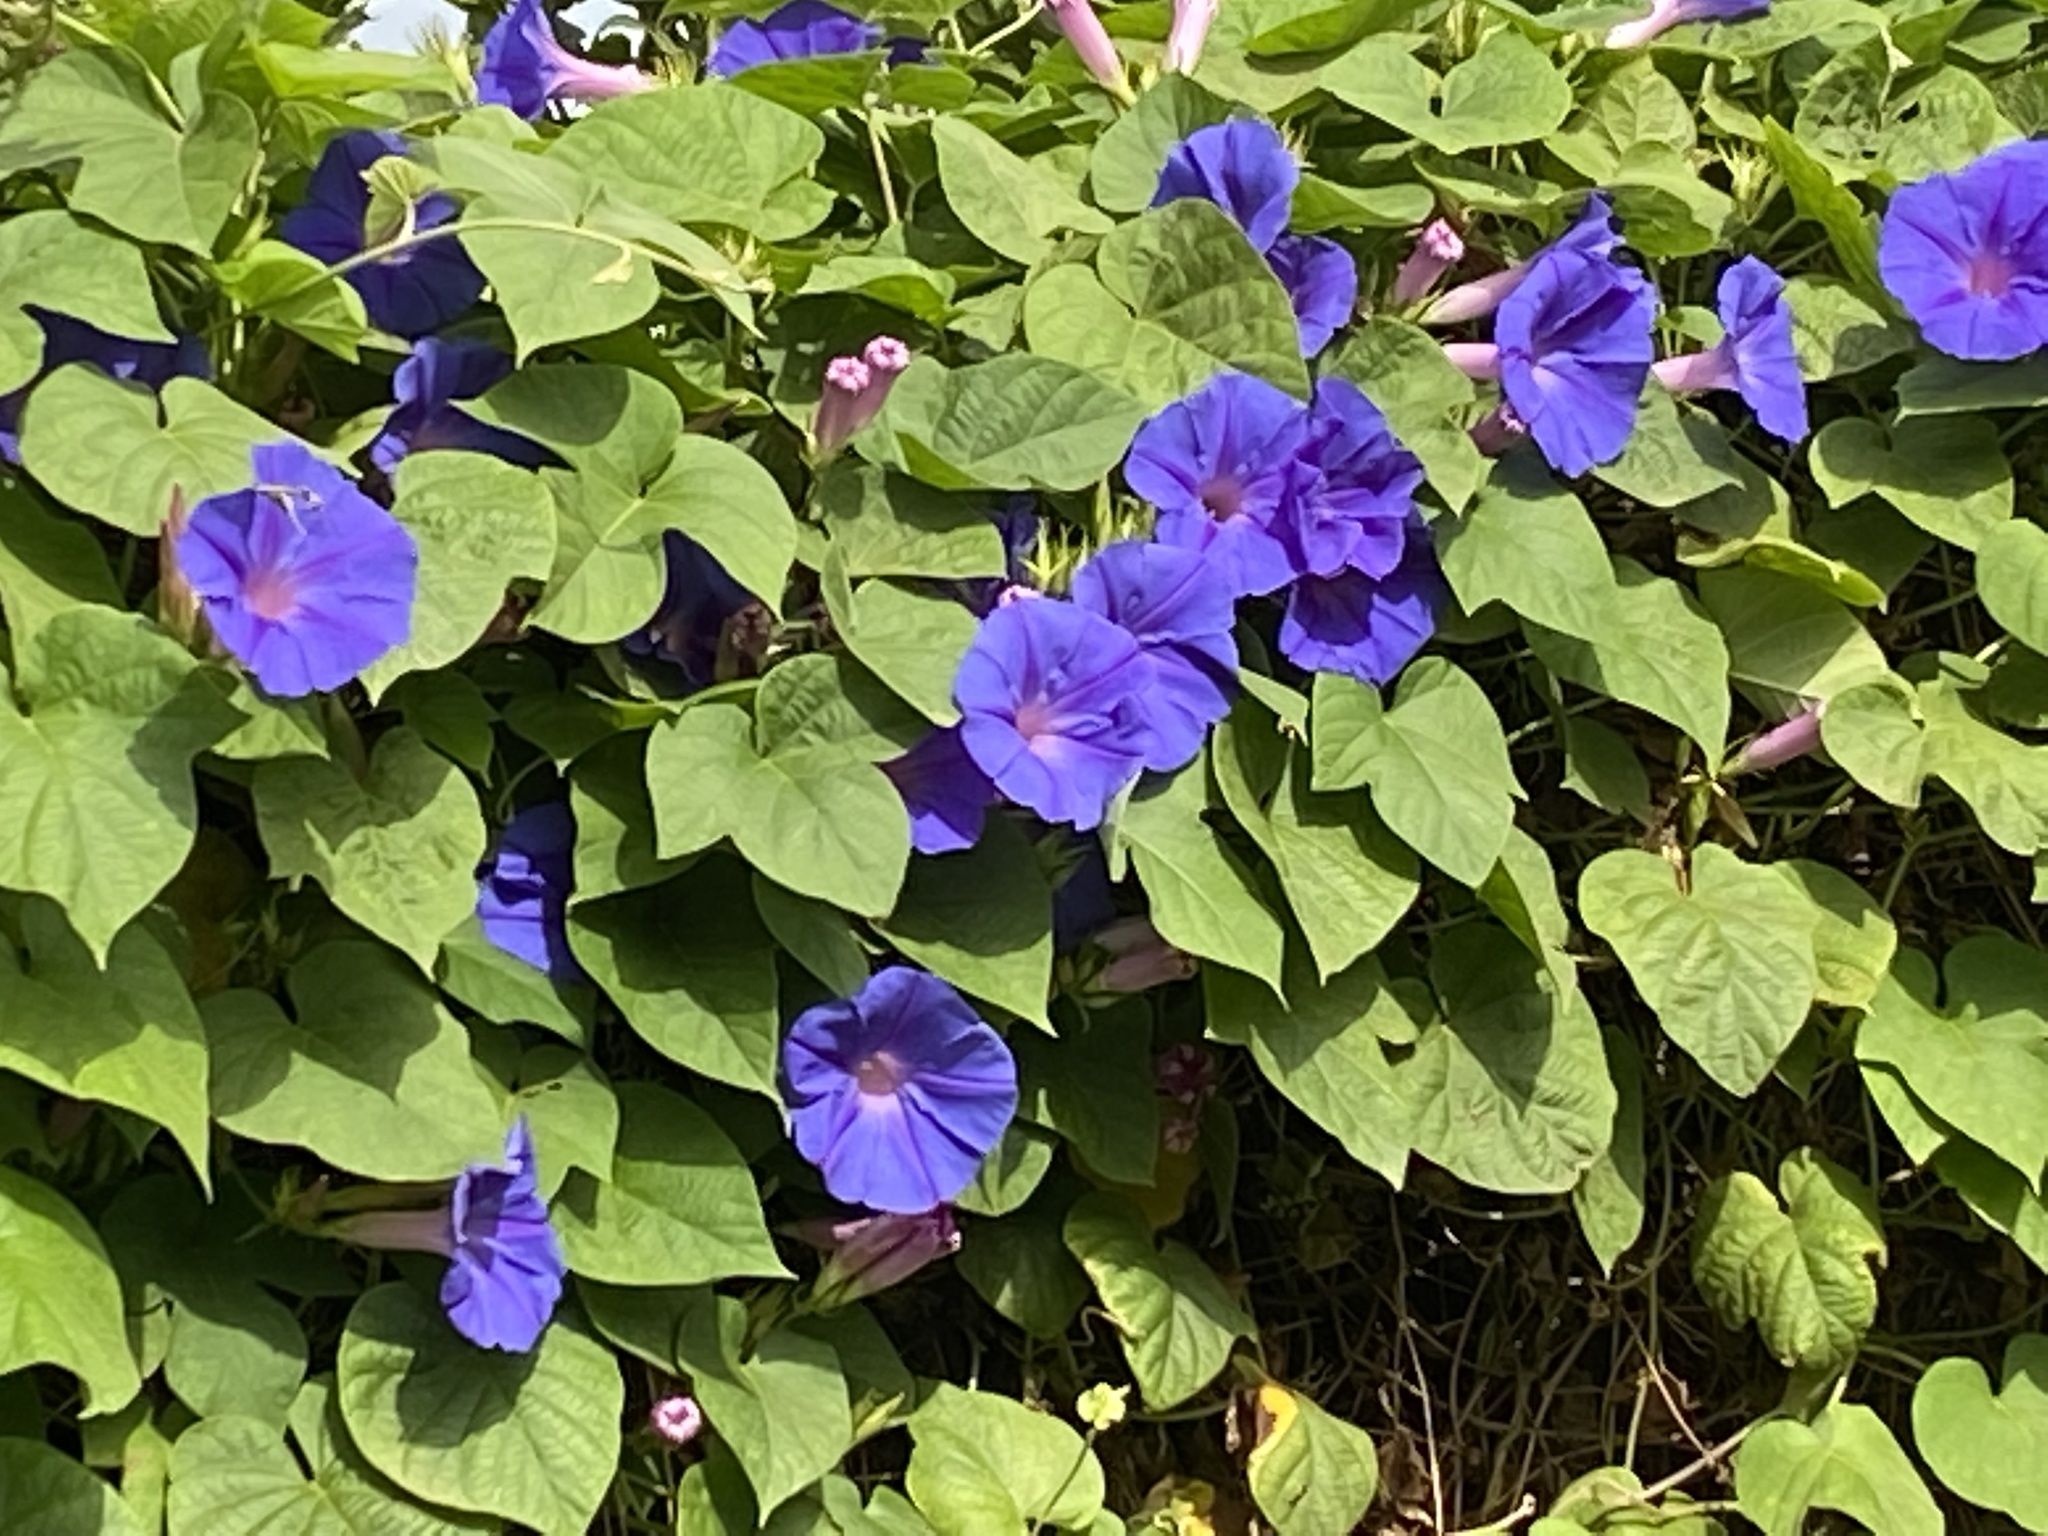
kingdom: Plantae
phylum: Tracheophyta
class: Magnoliopsida
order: Solanales
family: Convolvulaceae
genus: Ipomoea
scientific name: Ipomoea indica
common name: Blue dawnflower
